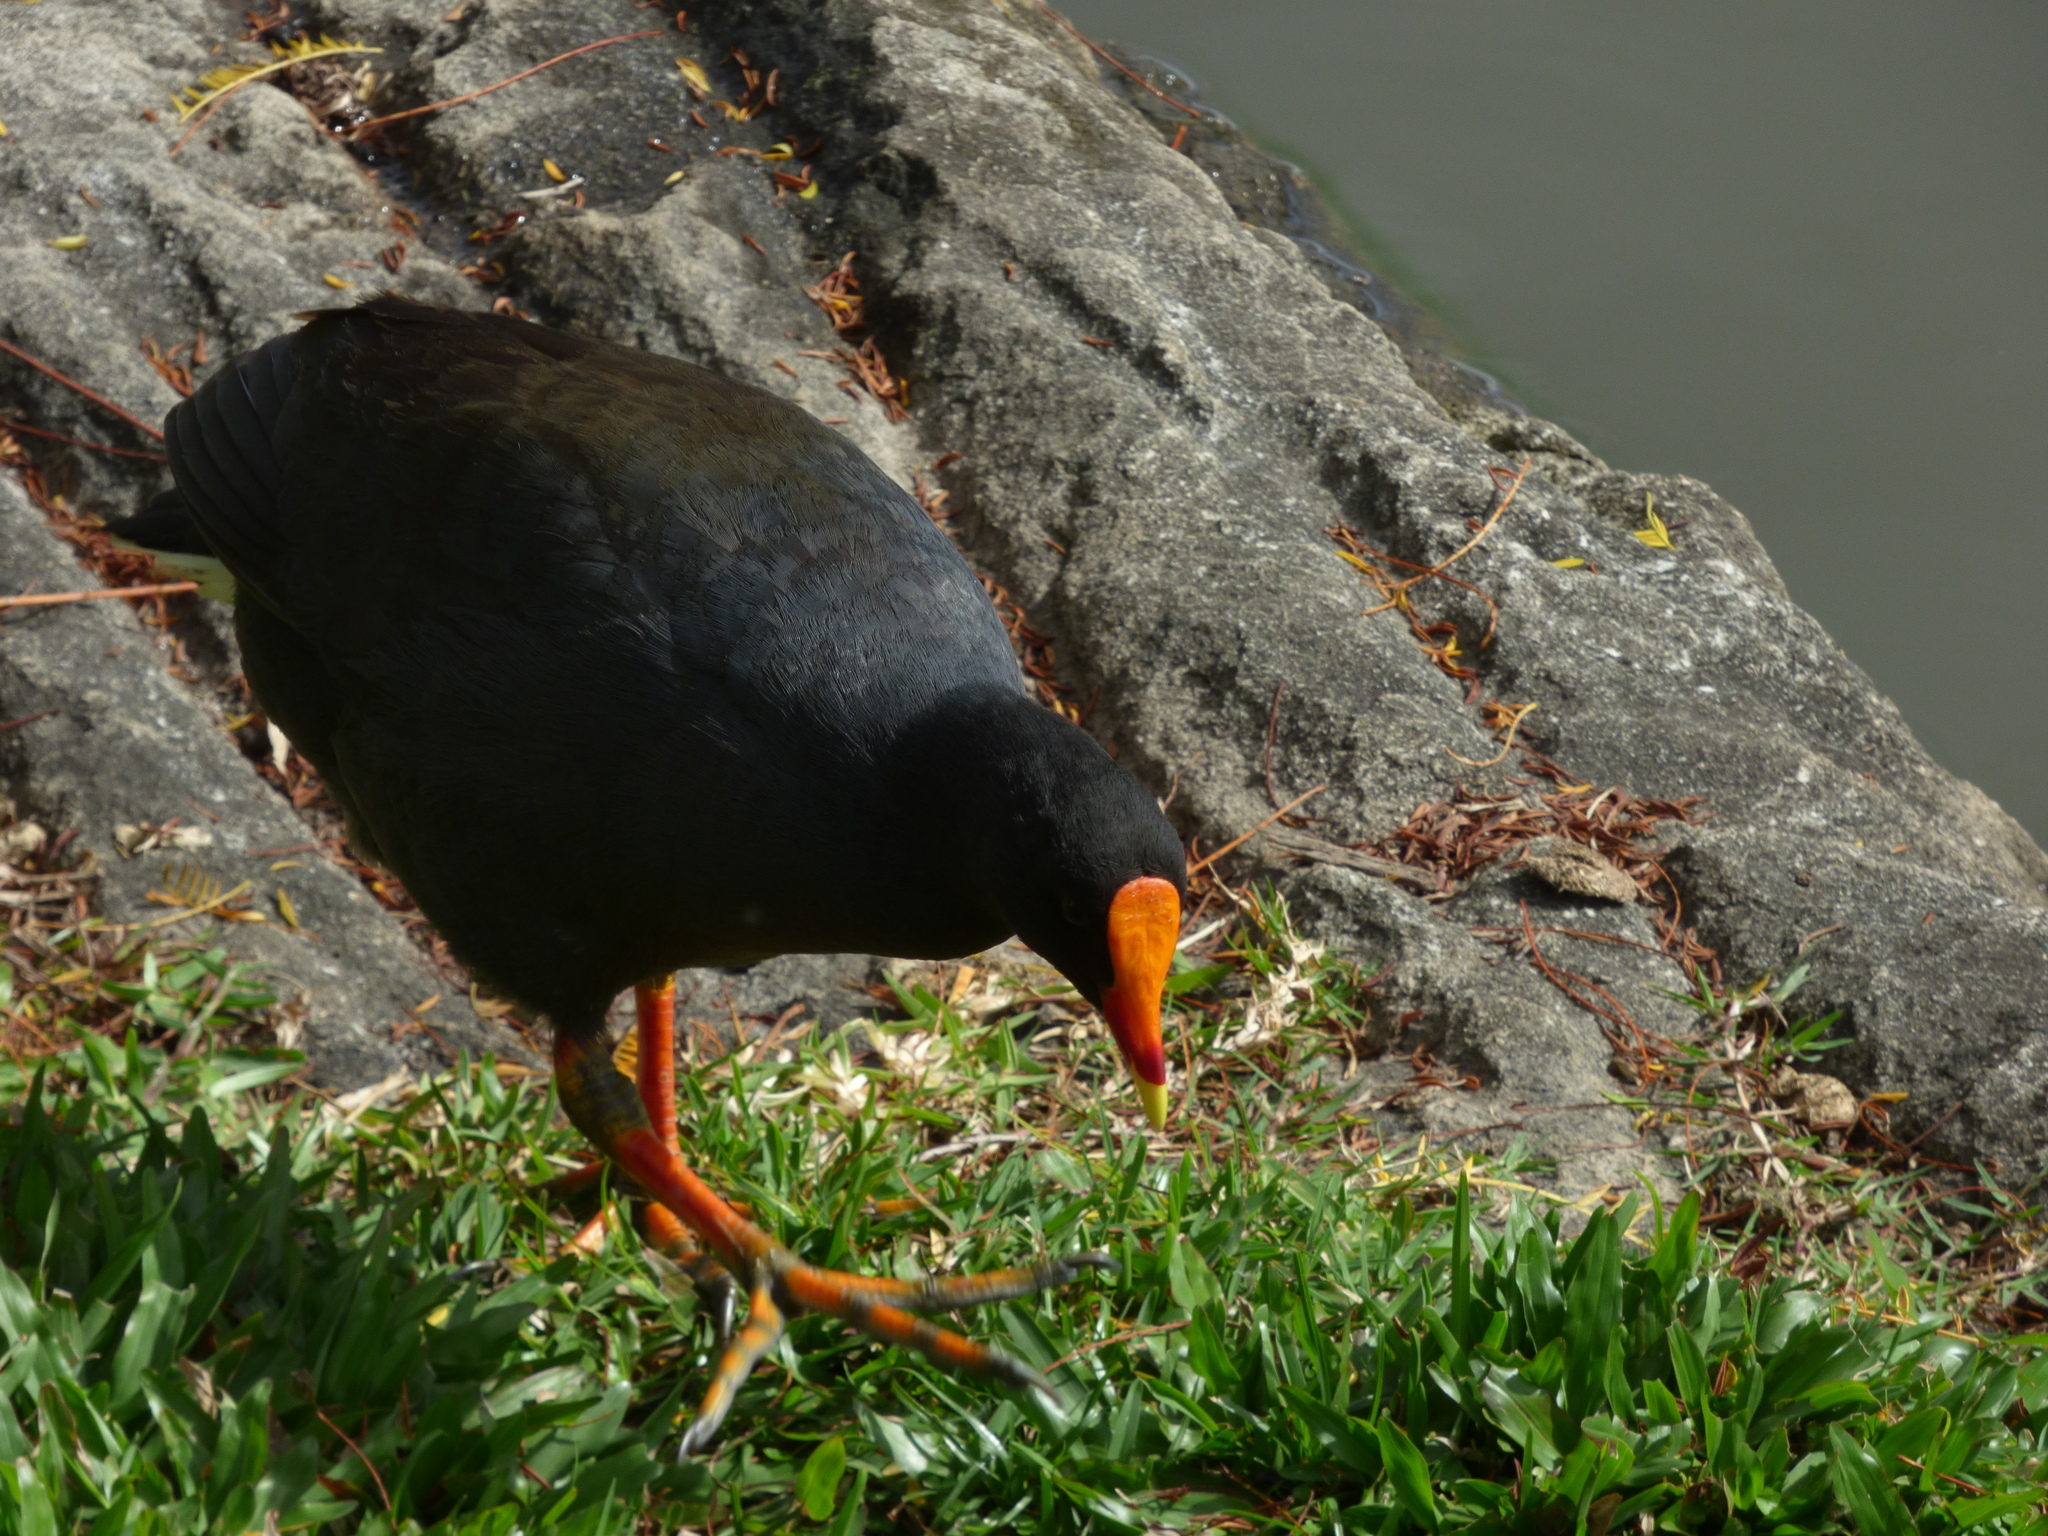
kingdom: Animalia
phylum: Chordata
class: Aves
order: Gruiformes
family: Rallidae
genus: Gallinula
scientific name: Gallinula tenebrosa
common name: Dusky moorhen
